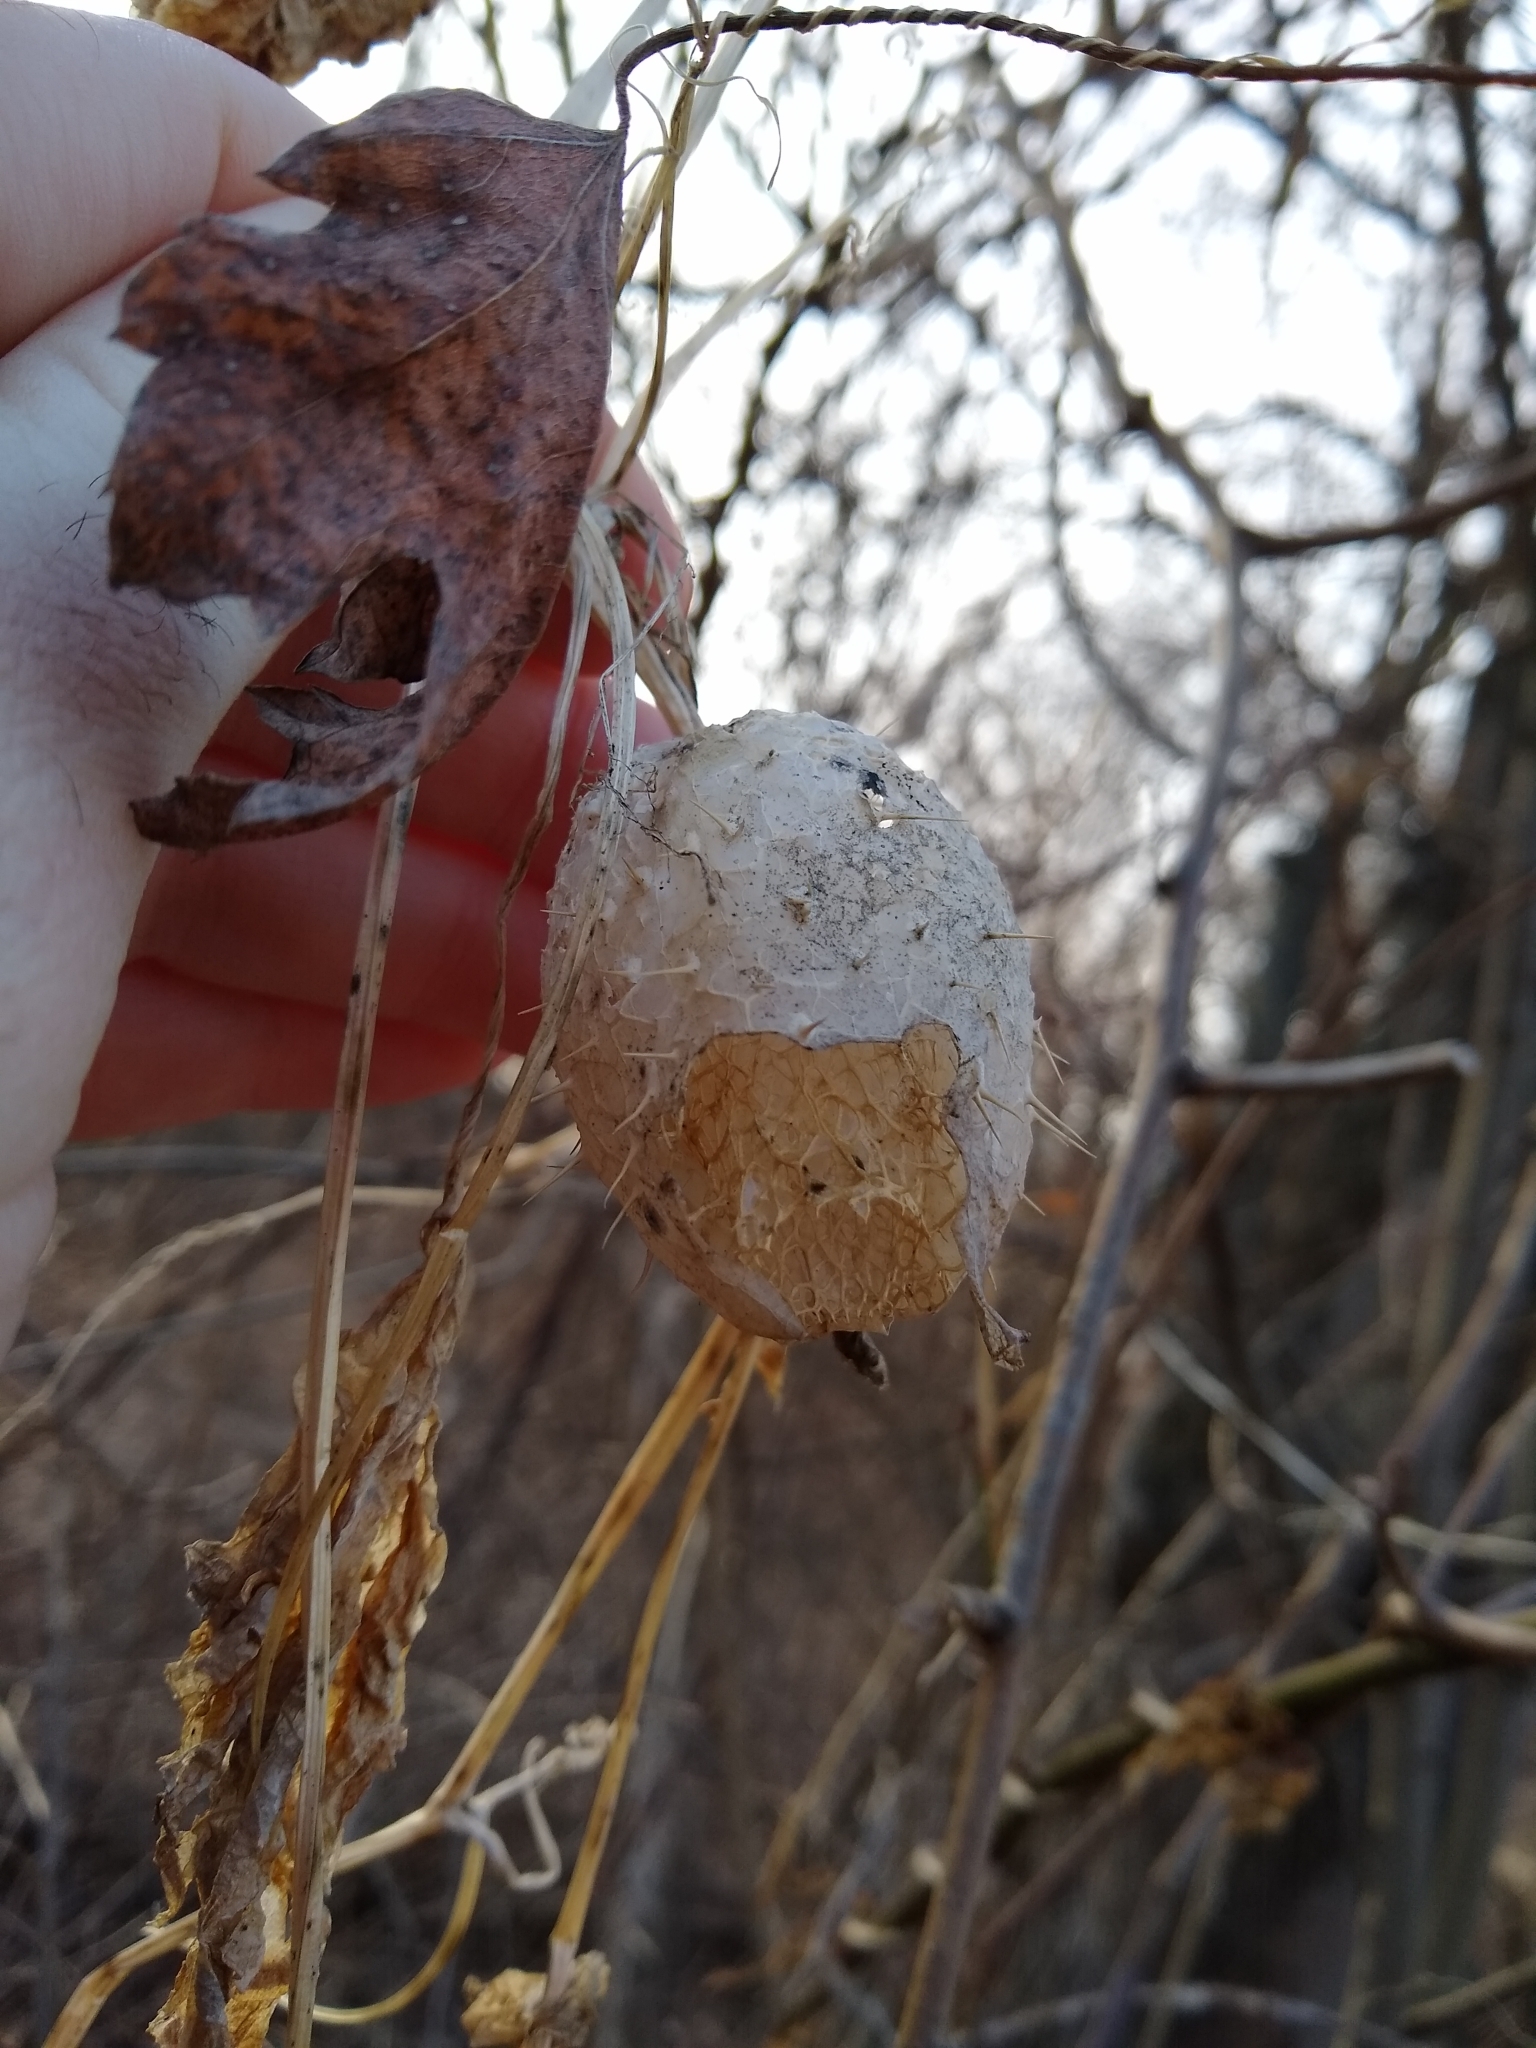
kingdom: Plantae
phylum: Tracheophyta
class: Magnoliopsida
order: Cucurbitales
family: Cucurbitaceae
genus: Echinocystis
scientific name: Echinocystis lobata
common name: Wild cucumber
